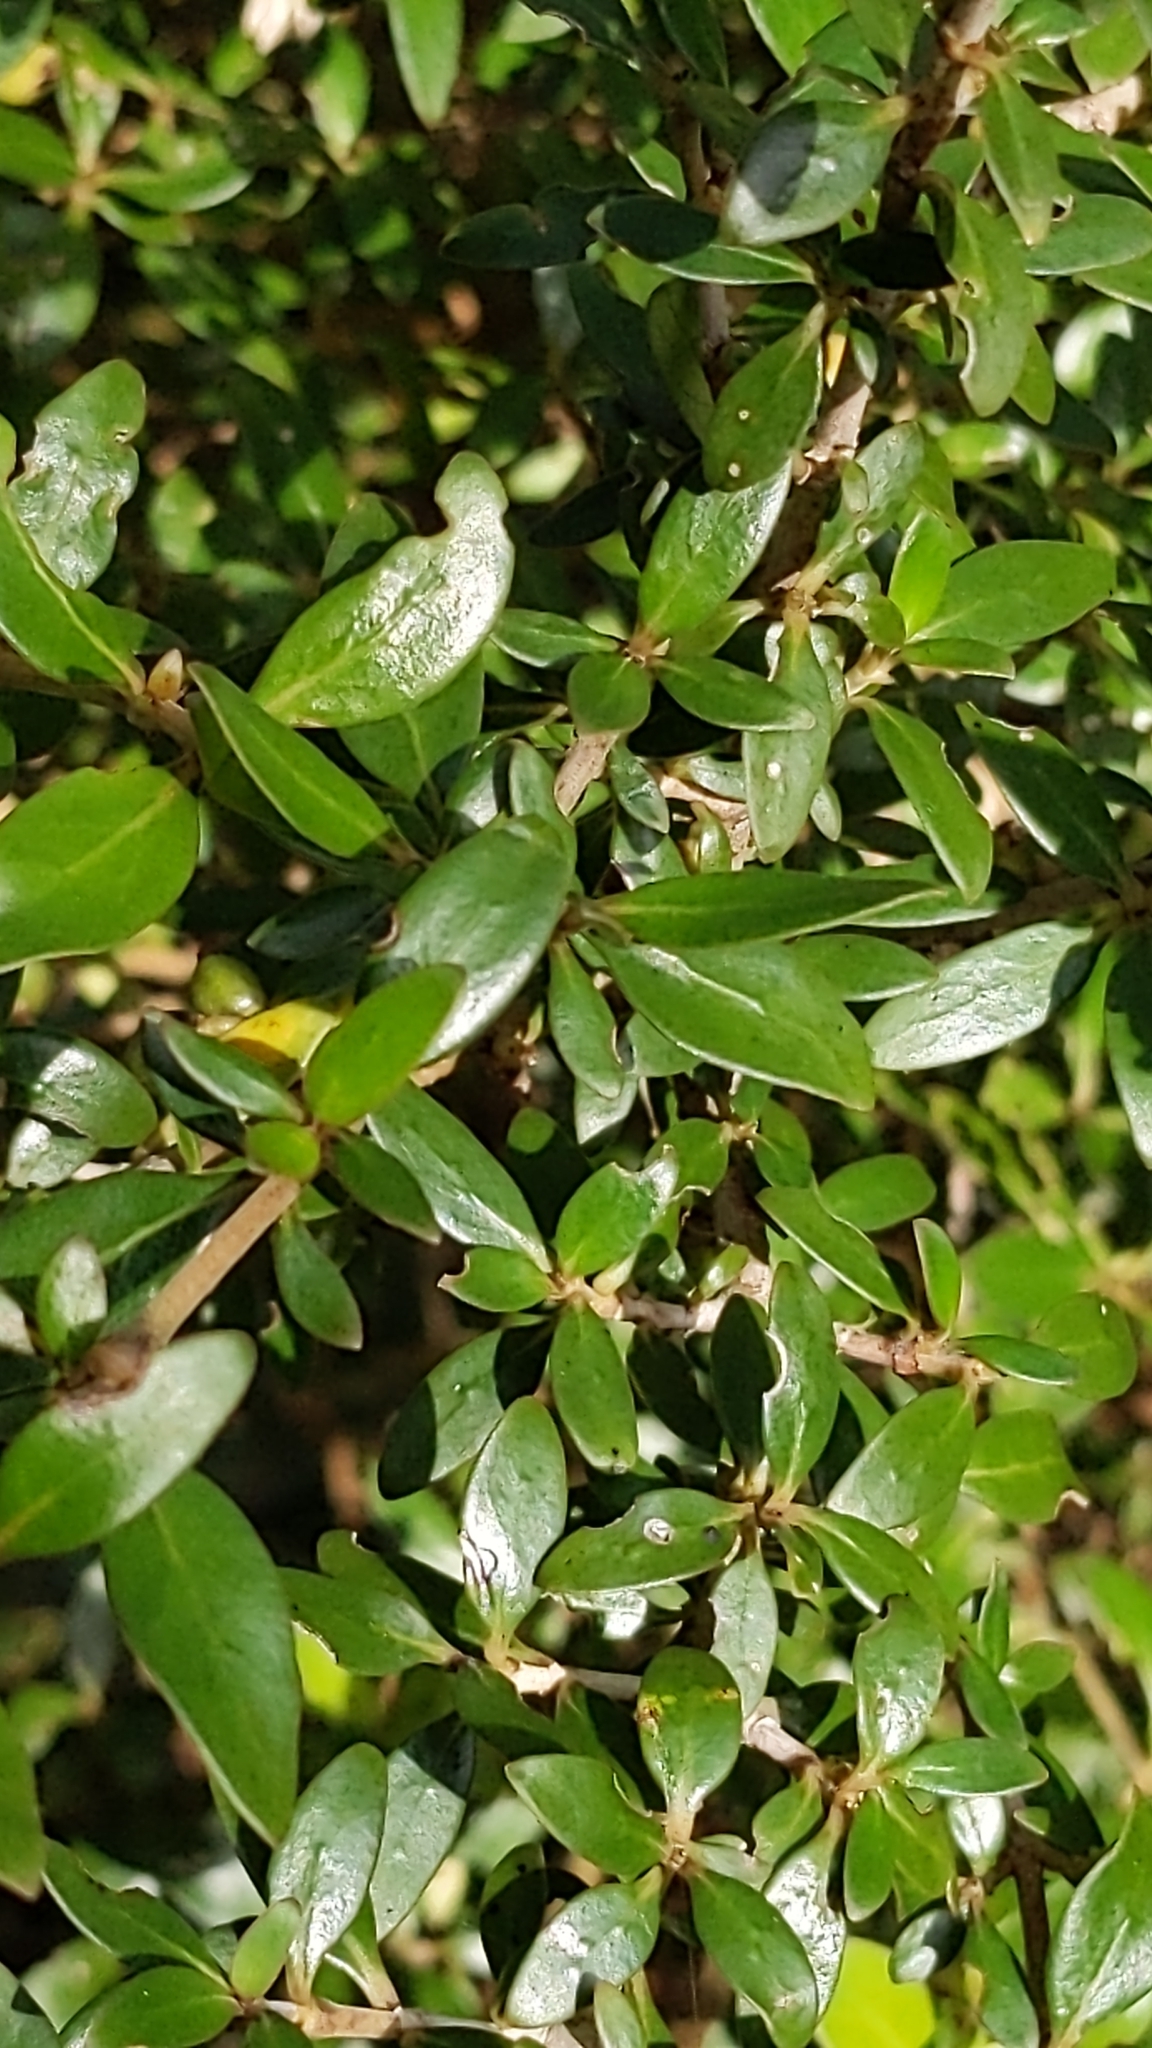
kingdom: Plantae
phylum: Tracheophyta
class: Magnoliopsida
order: Gentianales
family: Rubiaceae
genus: Coprosma
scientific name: Coprosma cunninghamii
